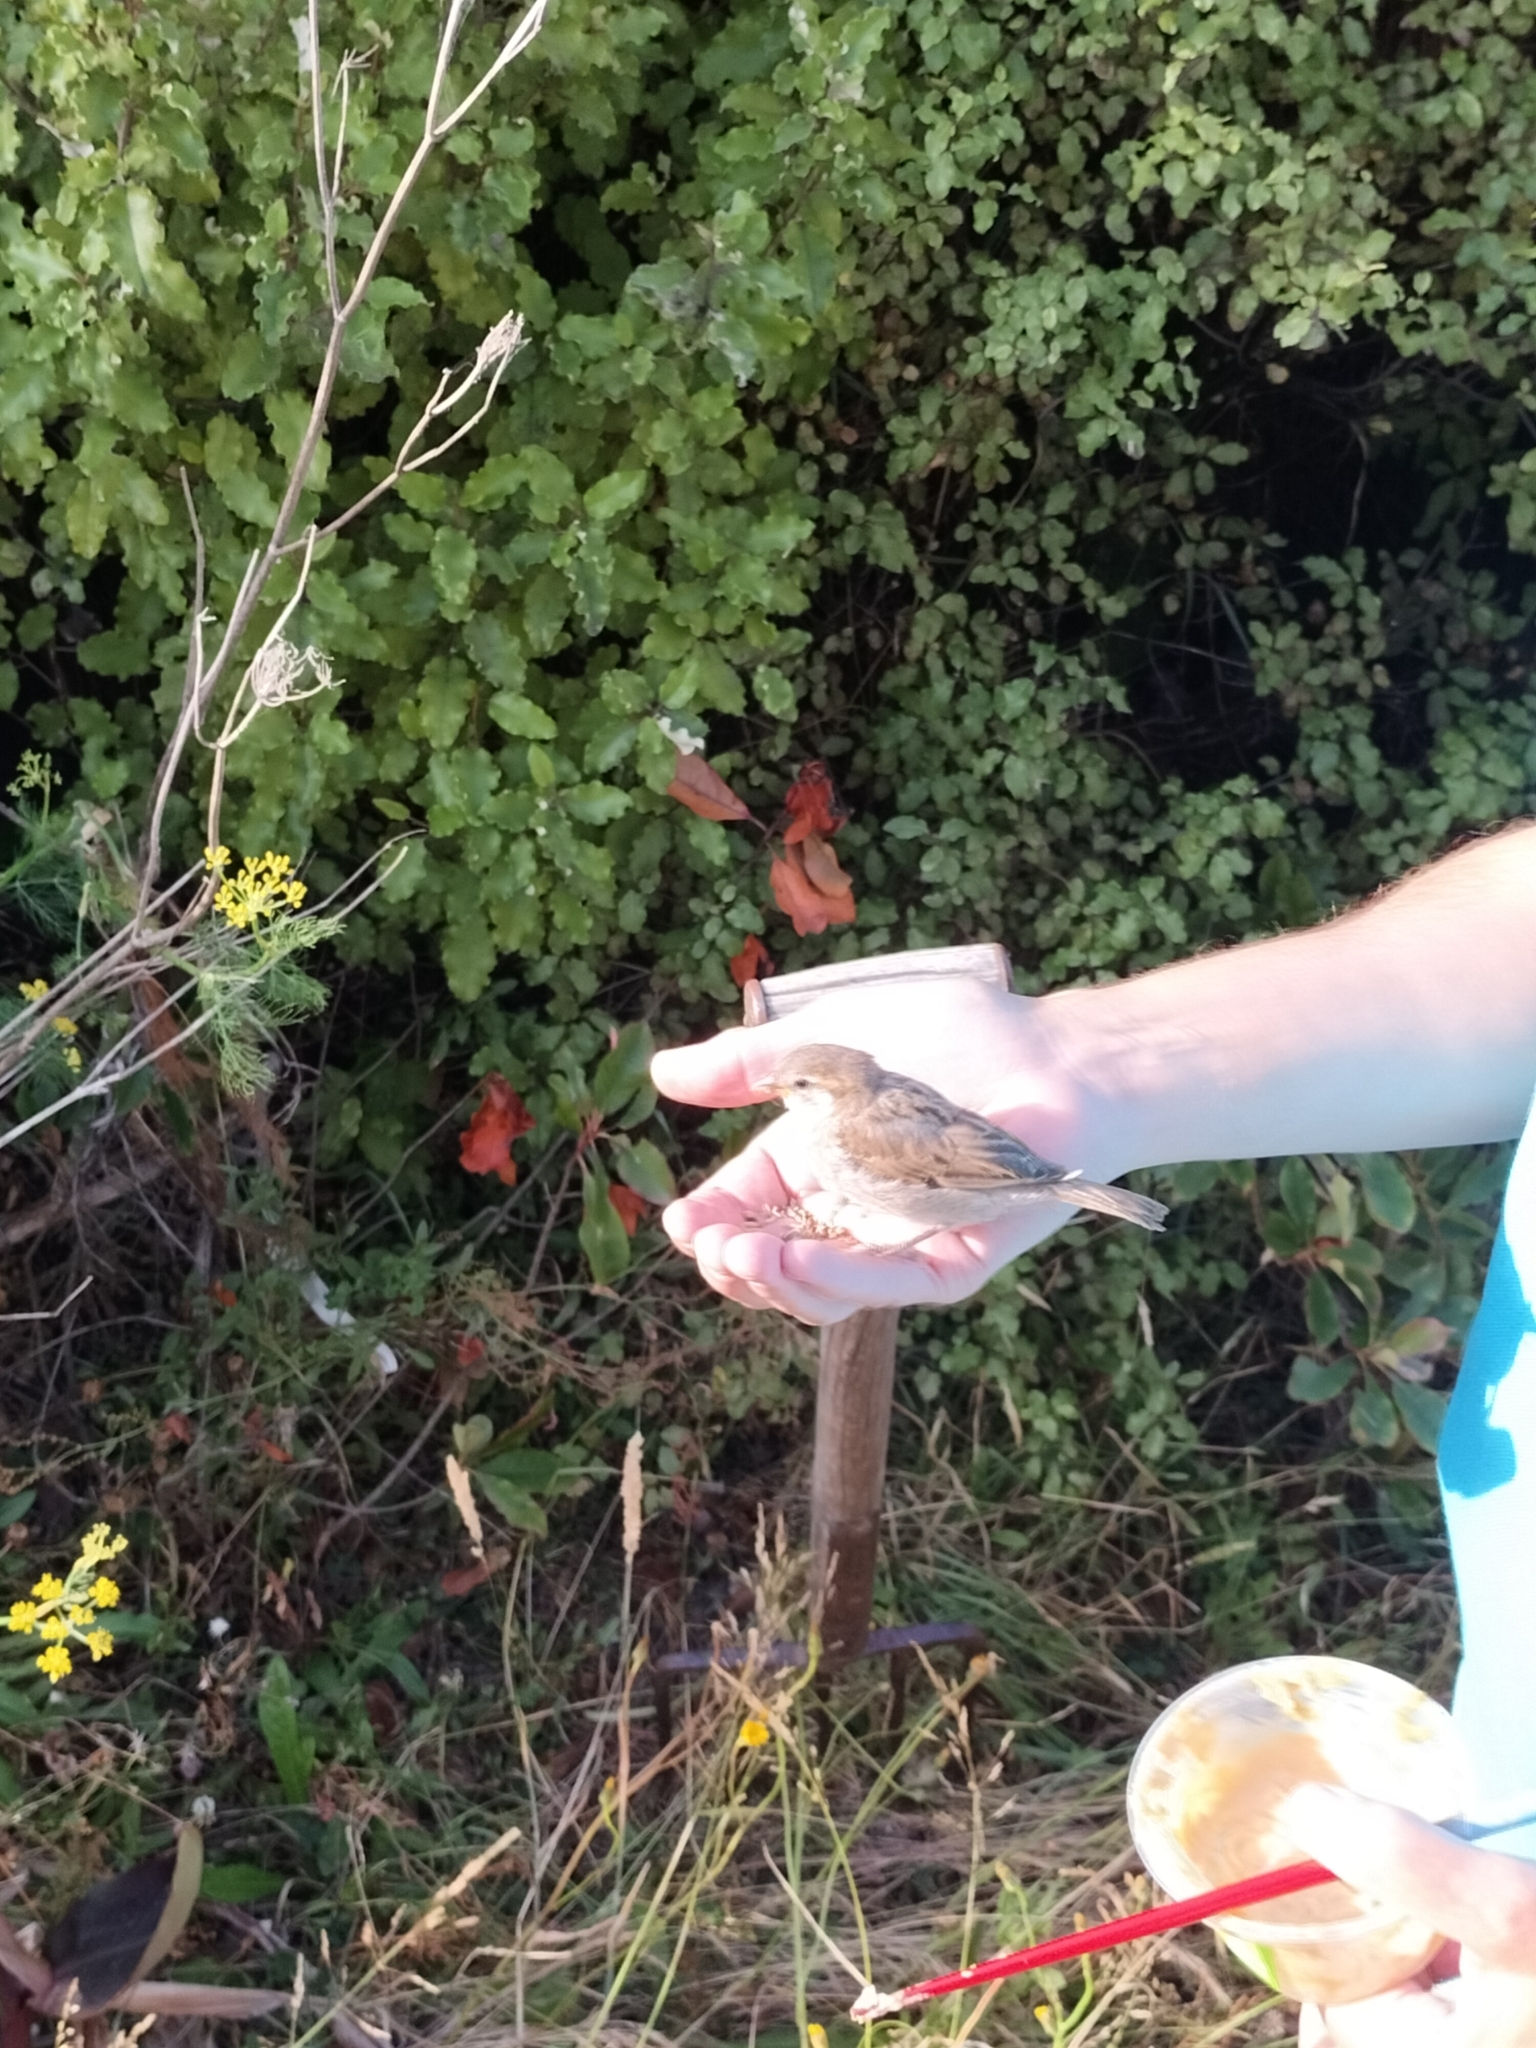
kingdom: Animalia
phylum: Chordata
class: Aves
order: Passeriformes
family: Passeridae
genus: Passer
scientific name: Passer domesticus
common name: House sparrow
